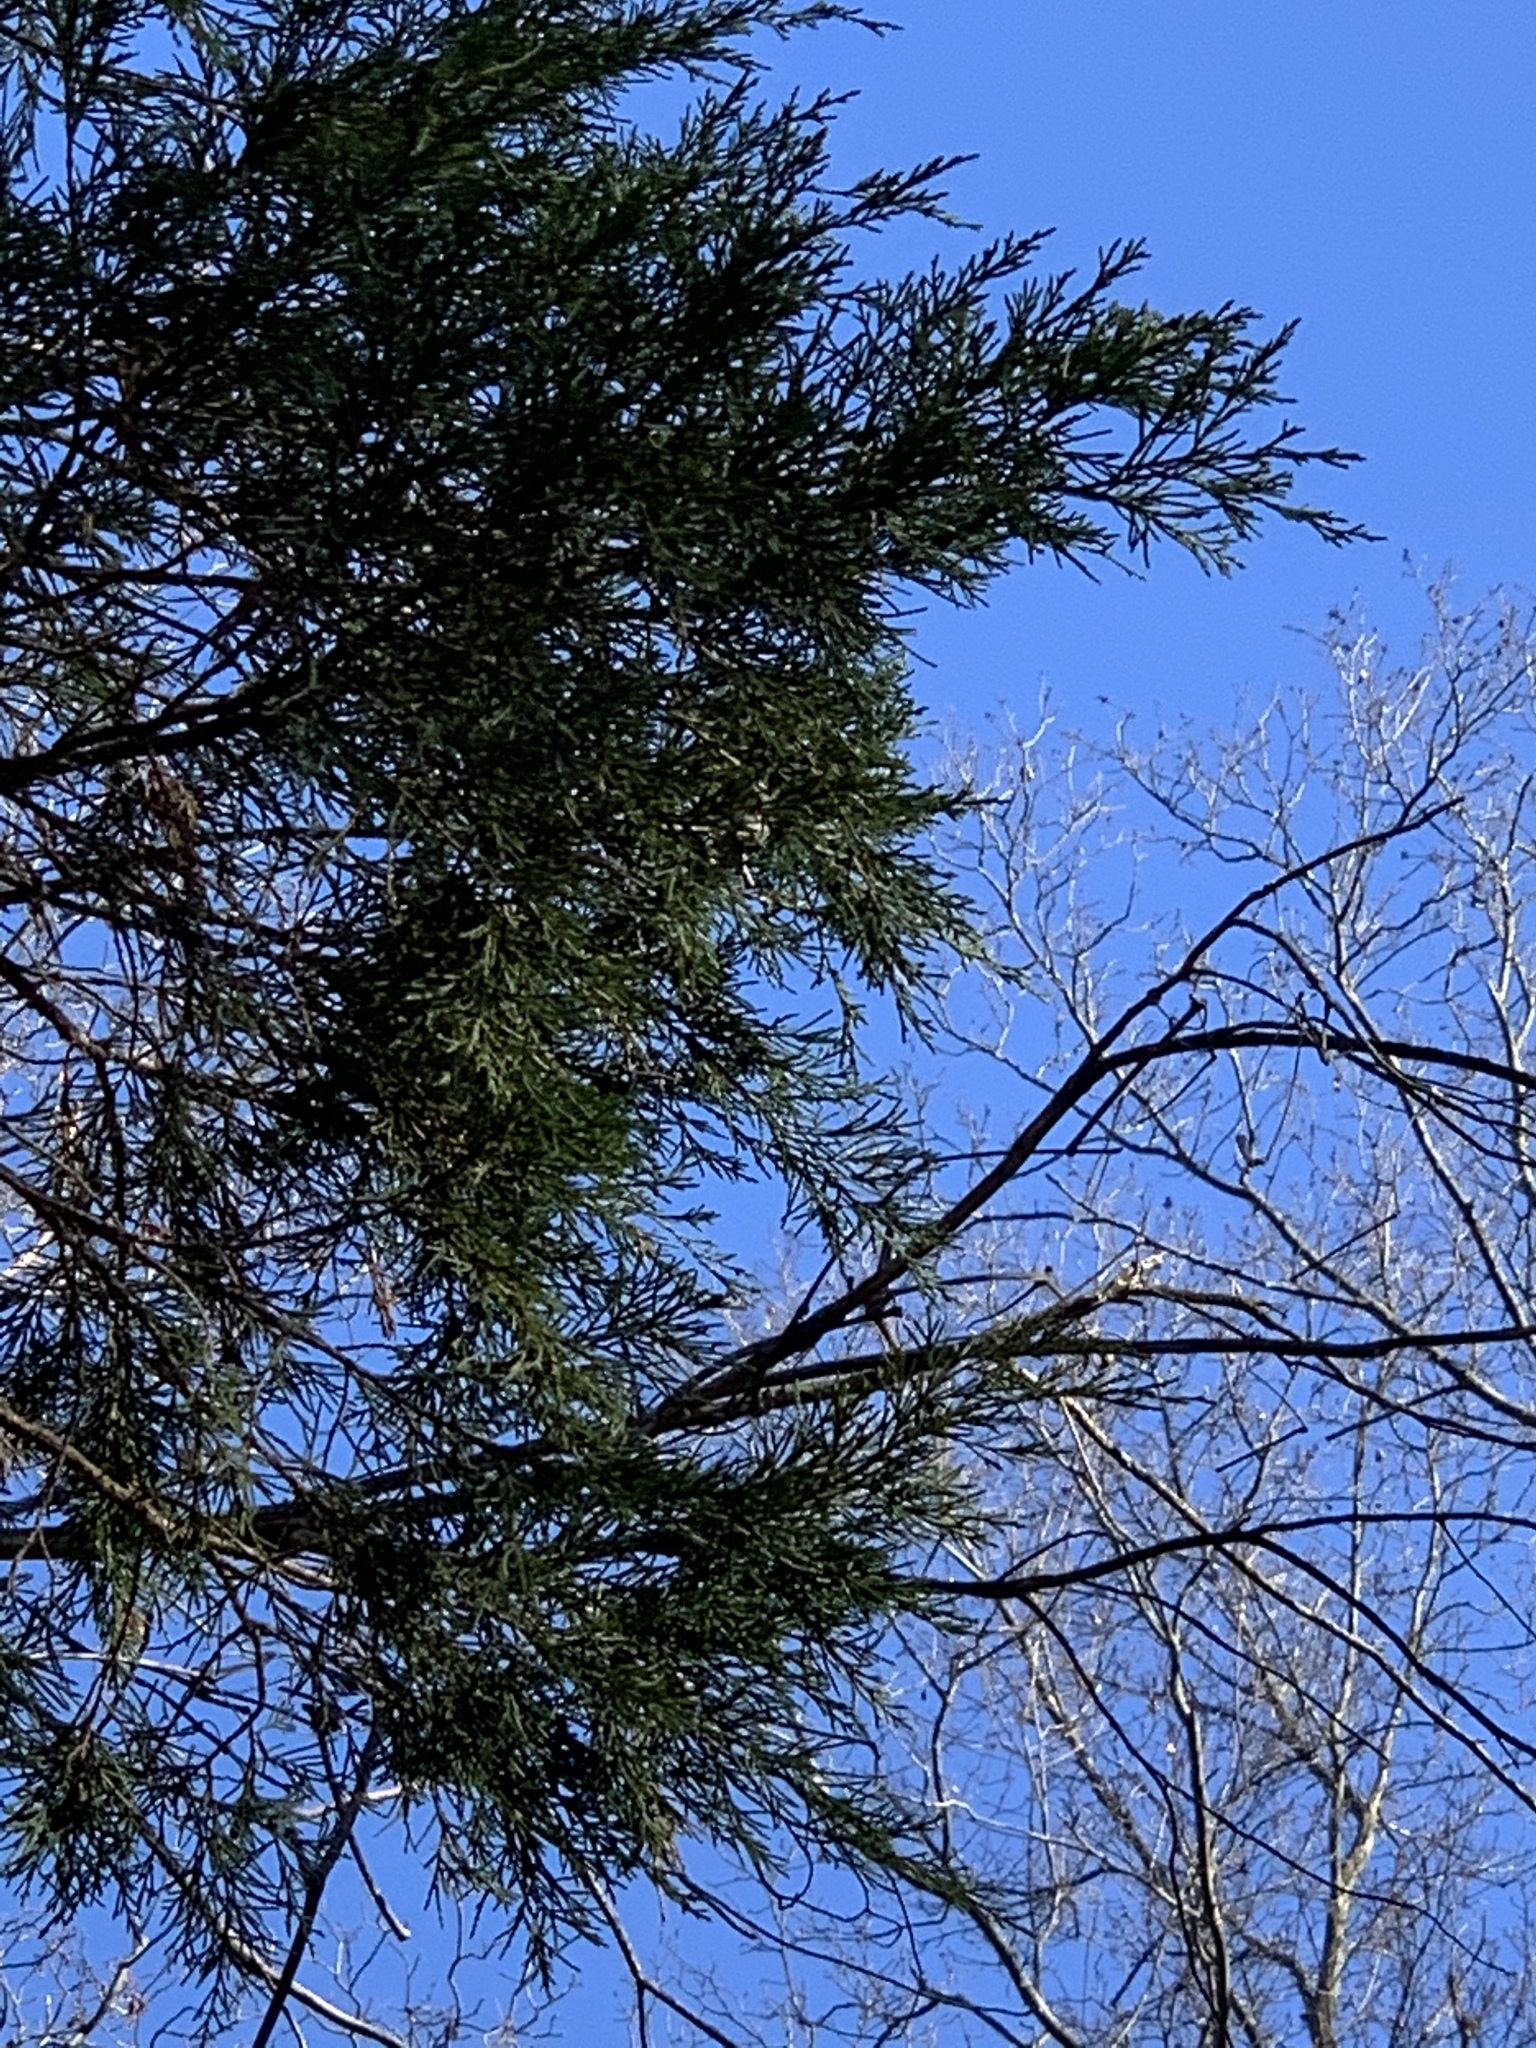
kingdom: Plantae
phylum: Tracheophyta
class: Pinopsida
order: Pinales
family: Cupressaceae
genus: Juniperus
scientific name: Juniperus virginiana
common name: Red juniper
